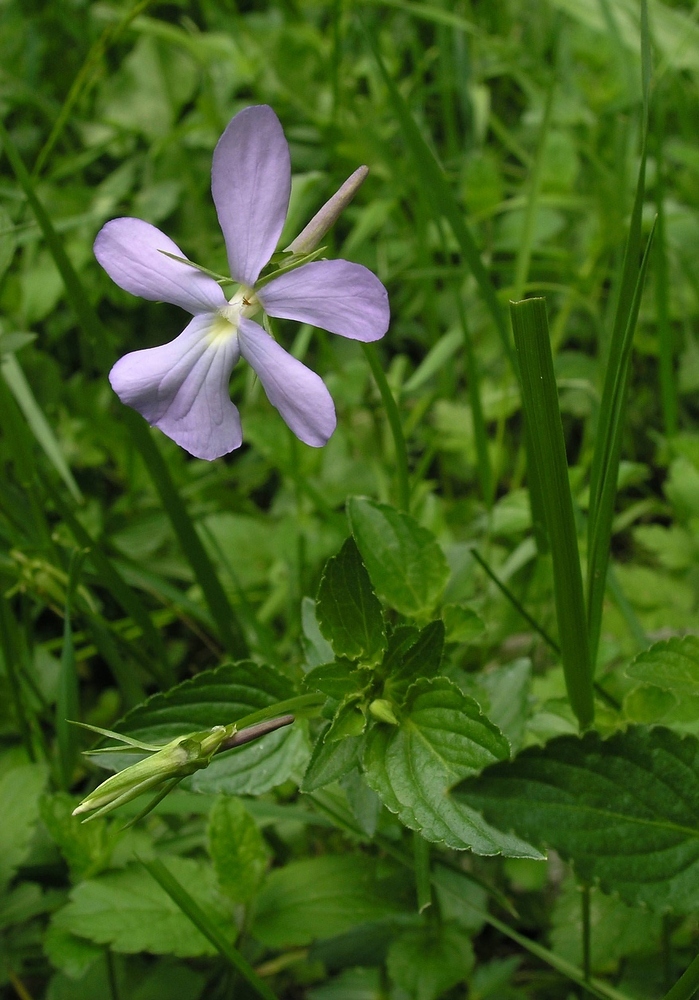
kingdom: Plantae
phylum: Tracheophyta
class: Magnoliopsida
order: Malpighiales
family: Violaceae
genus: Viola
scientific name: Viola cornuta
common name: Horned pansy
